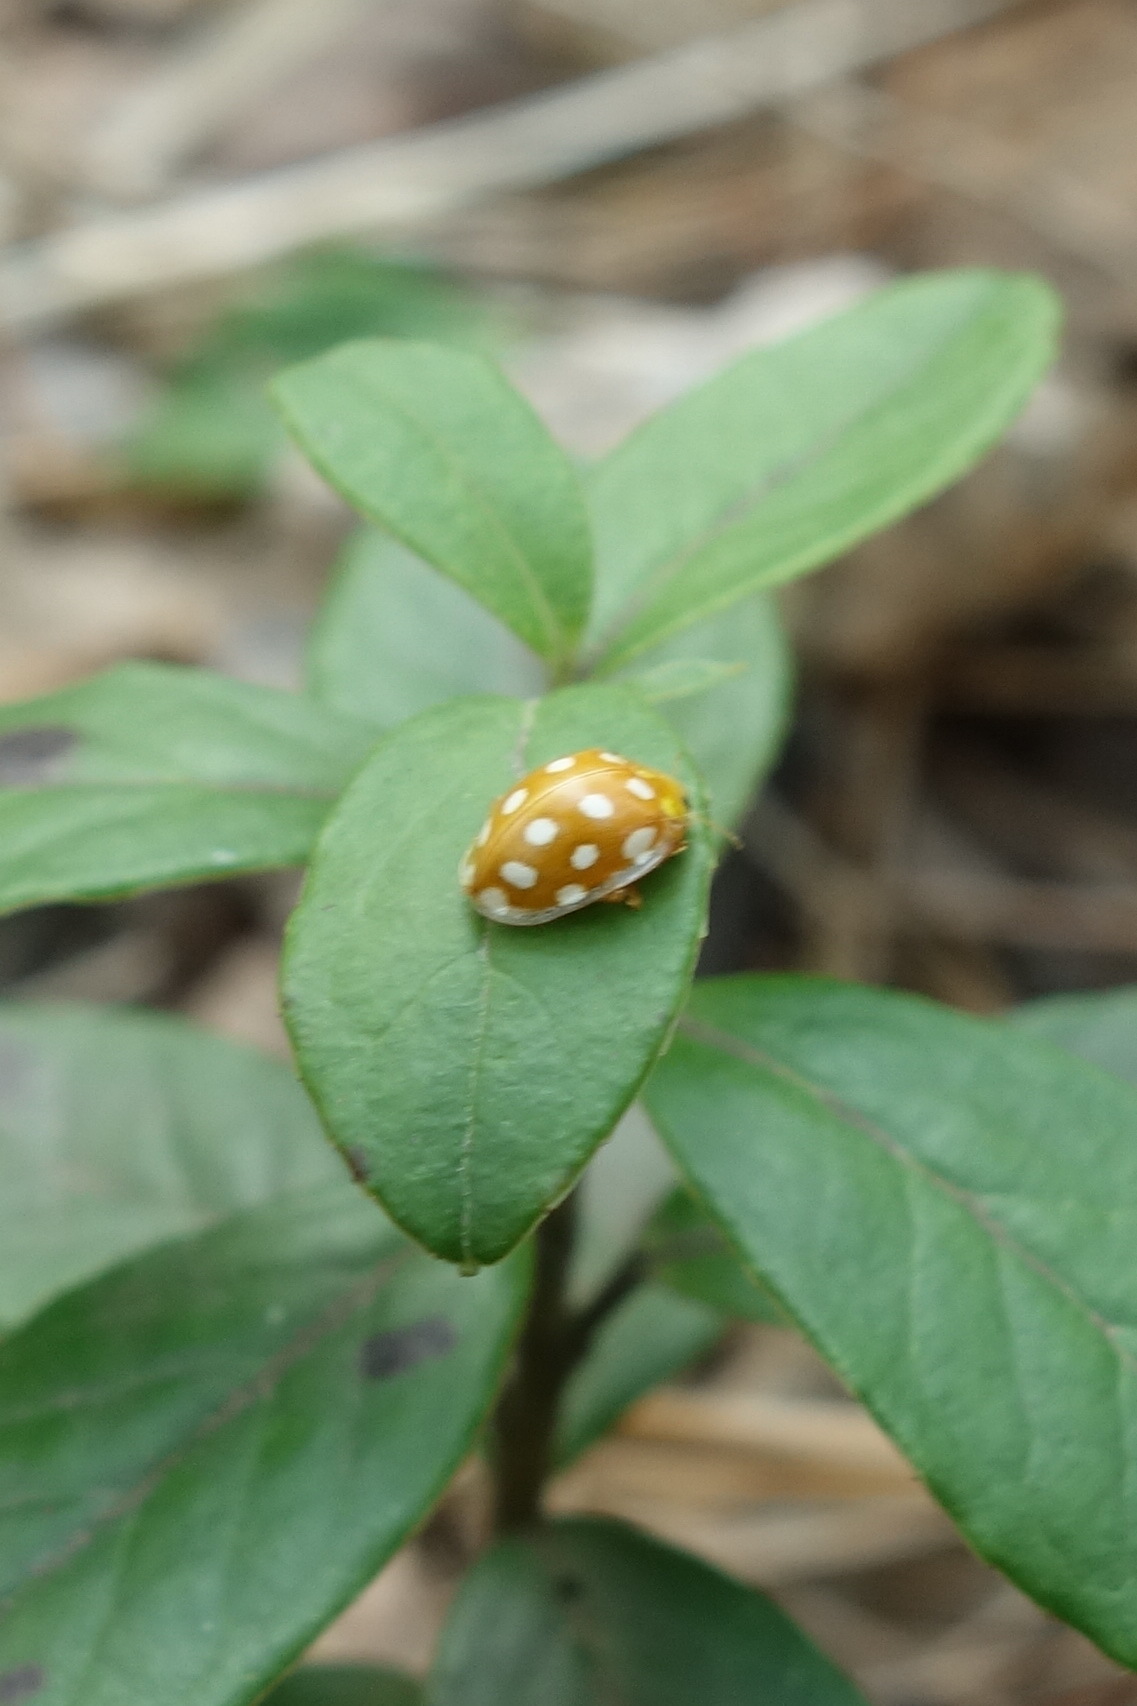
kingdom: Animalia
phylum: Arthropoda
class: Insecta
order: Coleoptera
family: Coccinellidae
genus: Halyzia
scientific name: Halyzia sedecimguttata
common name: Orange ladybird
